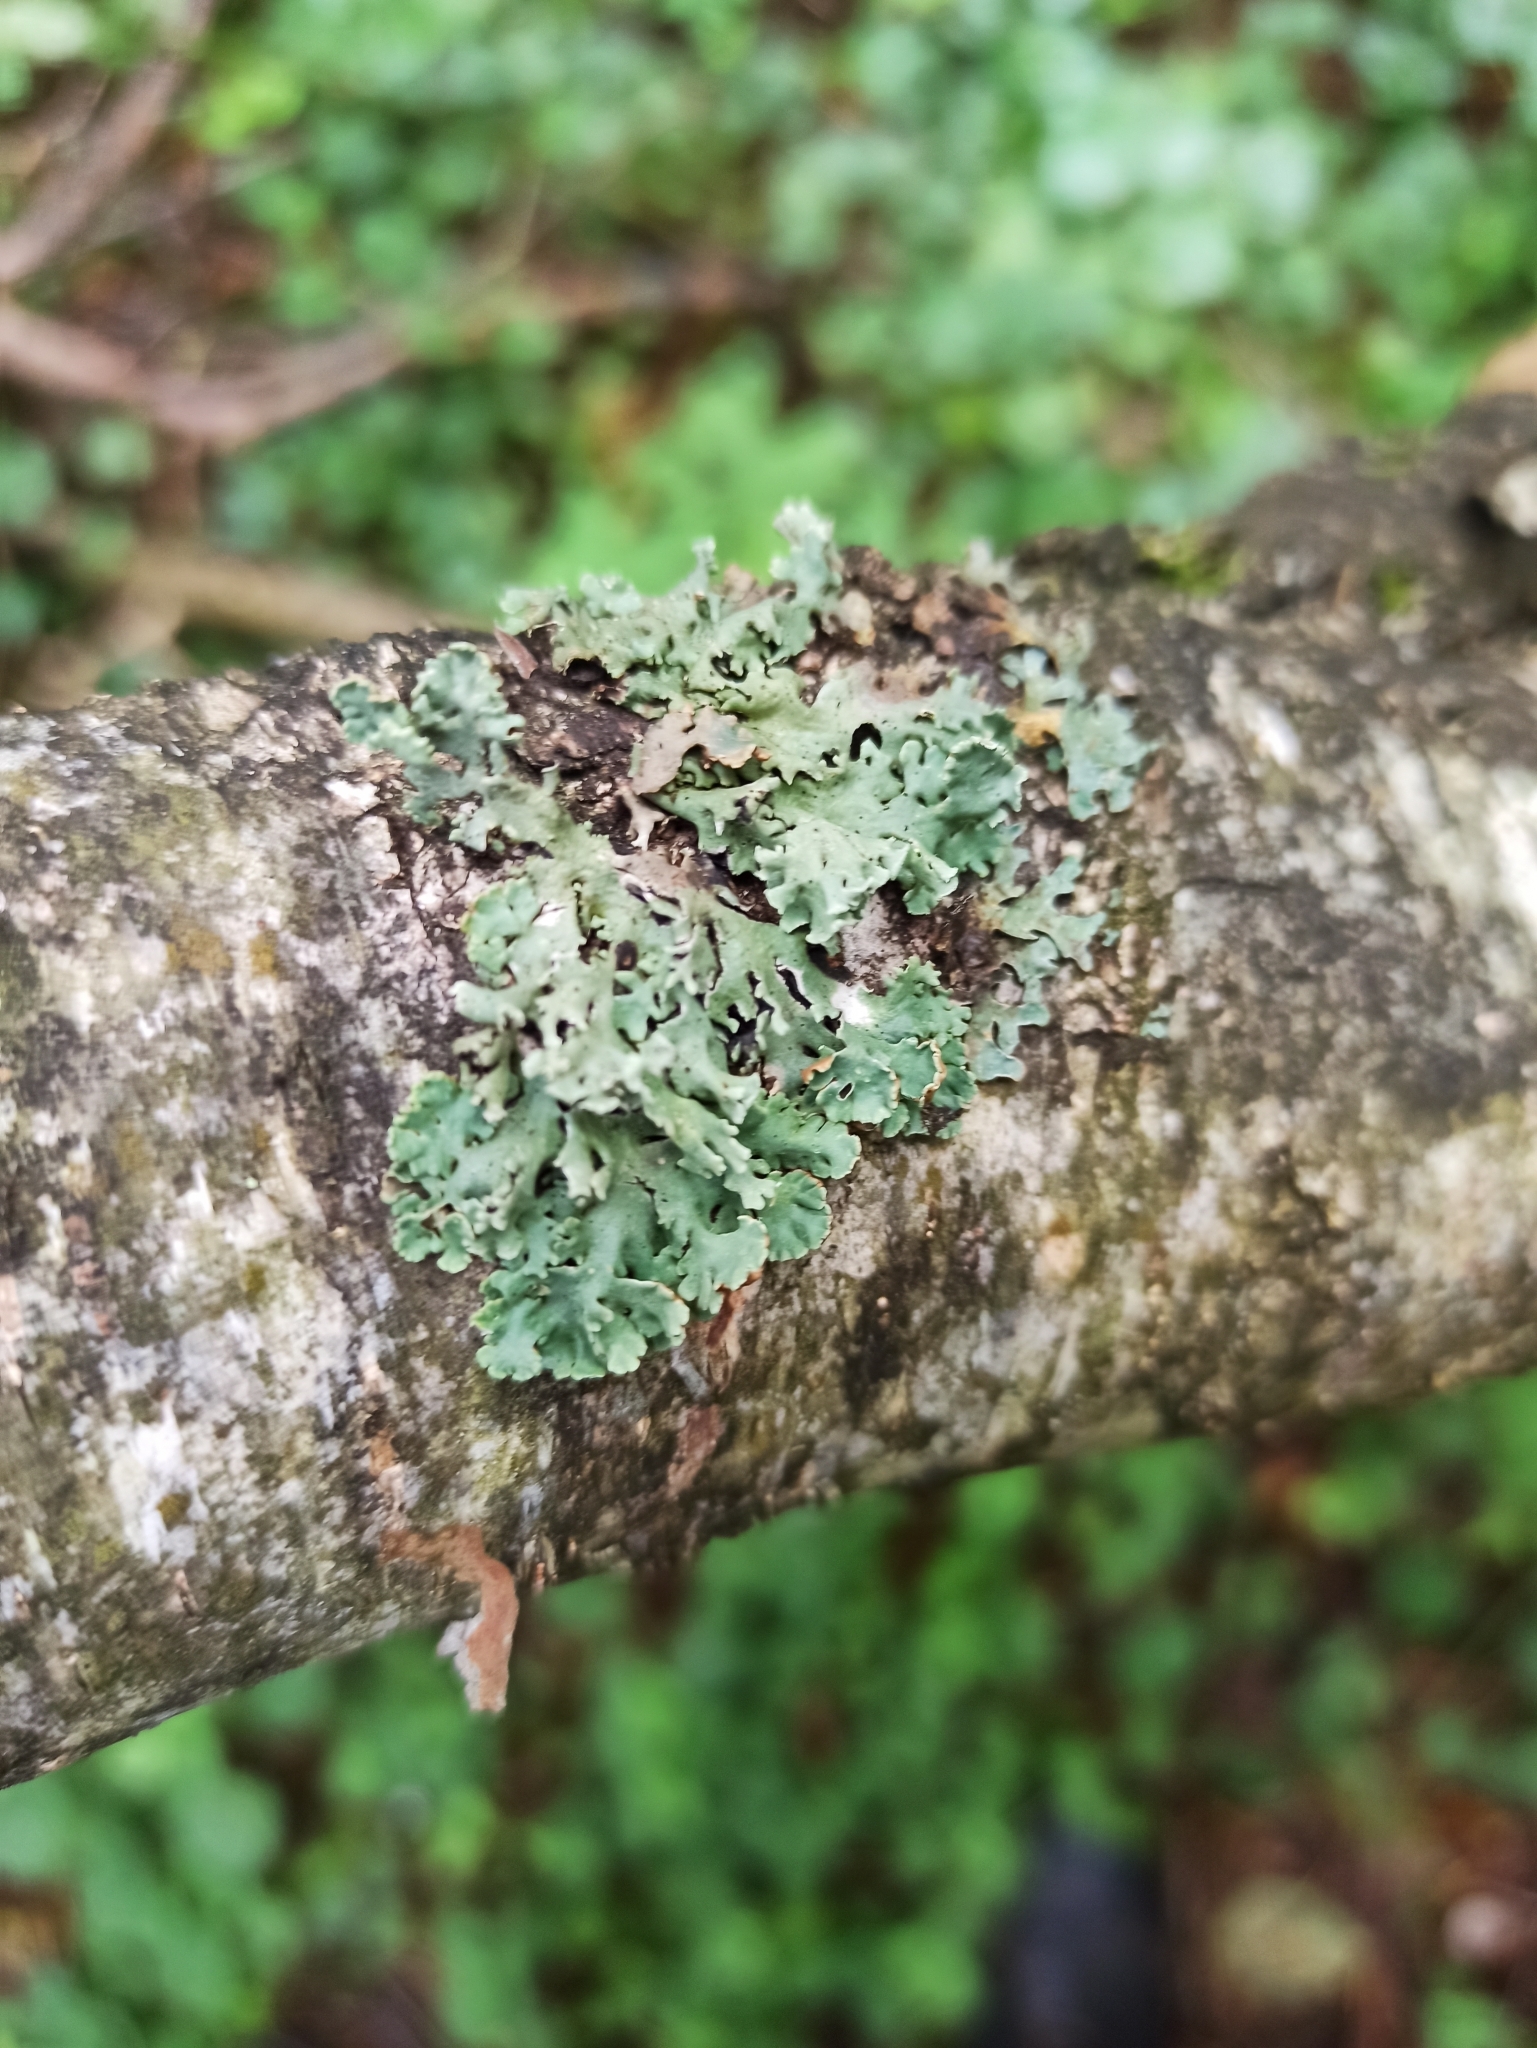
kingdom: Fungi
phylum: Ascomycota
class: Lecanoromycetes
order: Lecanorales
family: Parmeliaceae
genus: Hypogymnia
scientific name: Hypogymnia physodes
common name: Dark crottle
